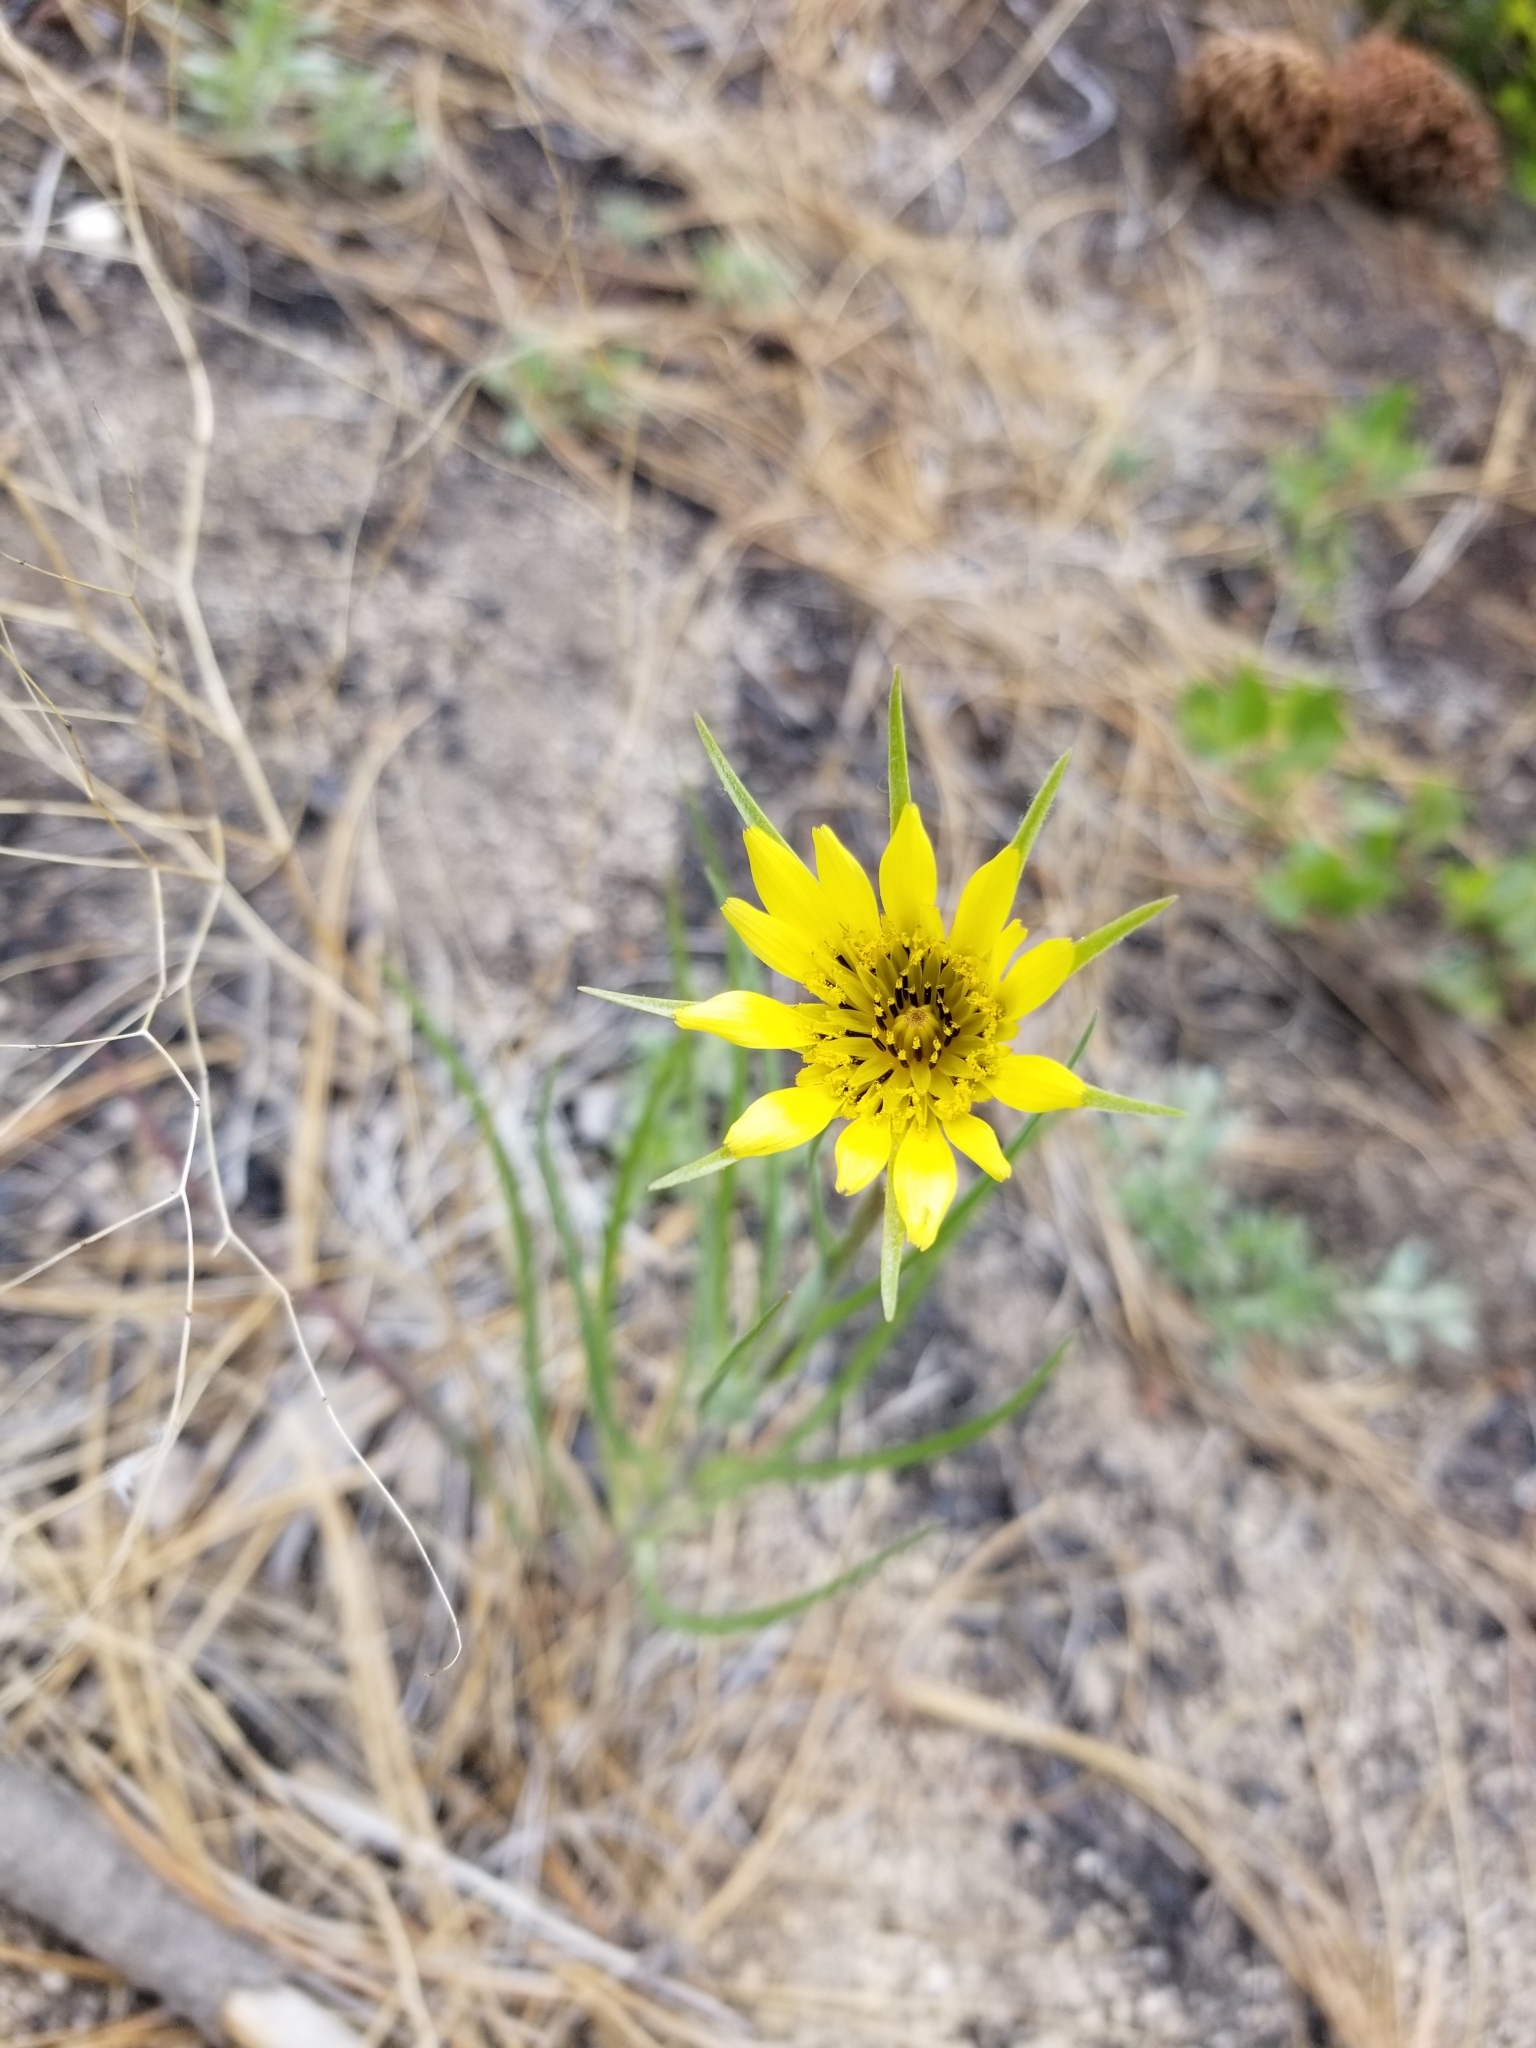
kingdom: Plantae
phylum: Tracheophyta
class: Magnoliopsida
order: Asterales
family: Asteraceae
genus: Tragopogon
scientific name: Tragopogon dubius
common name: Yellow salsify
